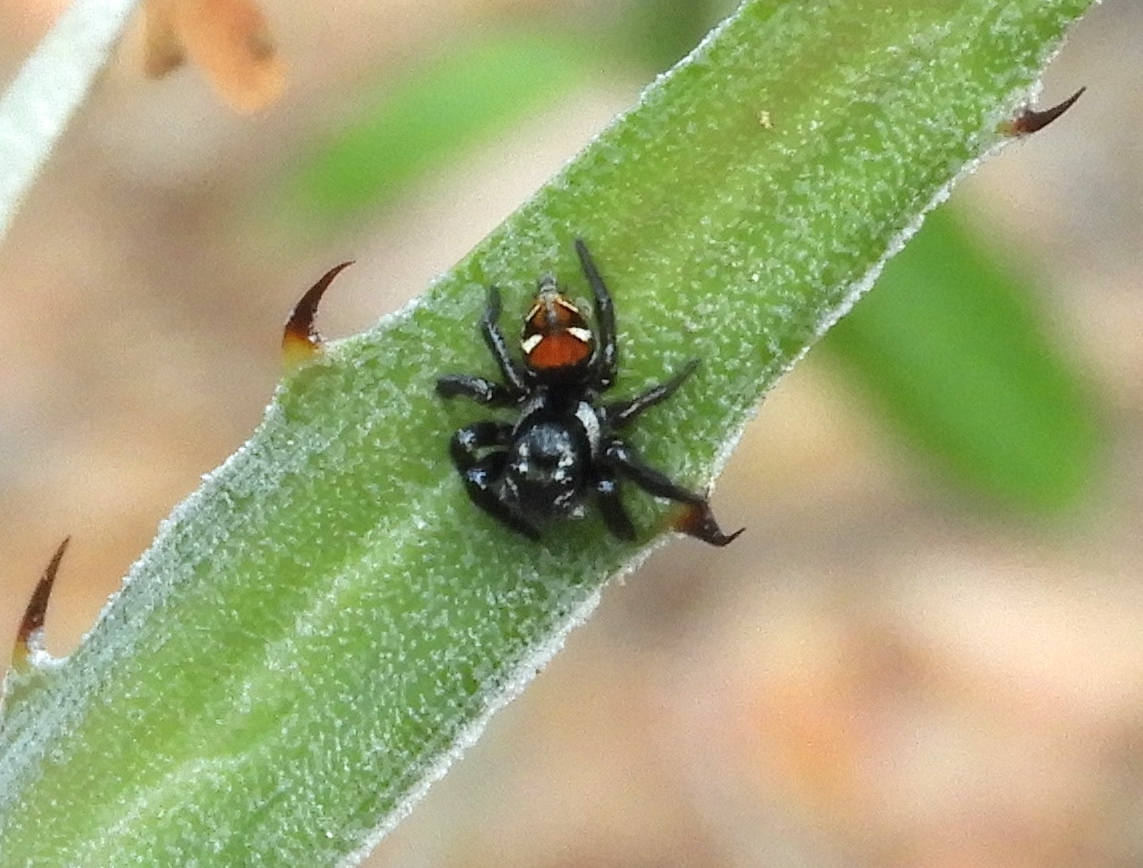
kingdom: Animalia
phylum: Arthropoda
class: Arachnida
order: Araneae
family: Salticidae
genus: Corythalia
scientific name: Corythalia
